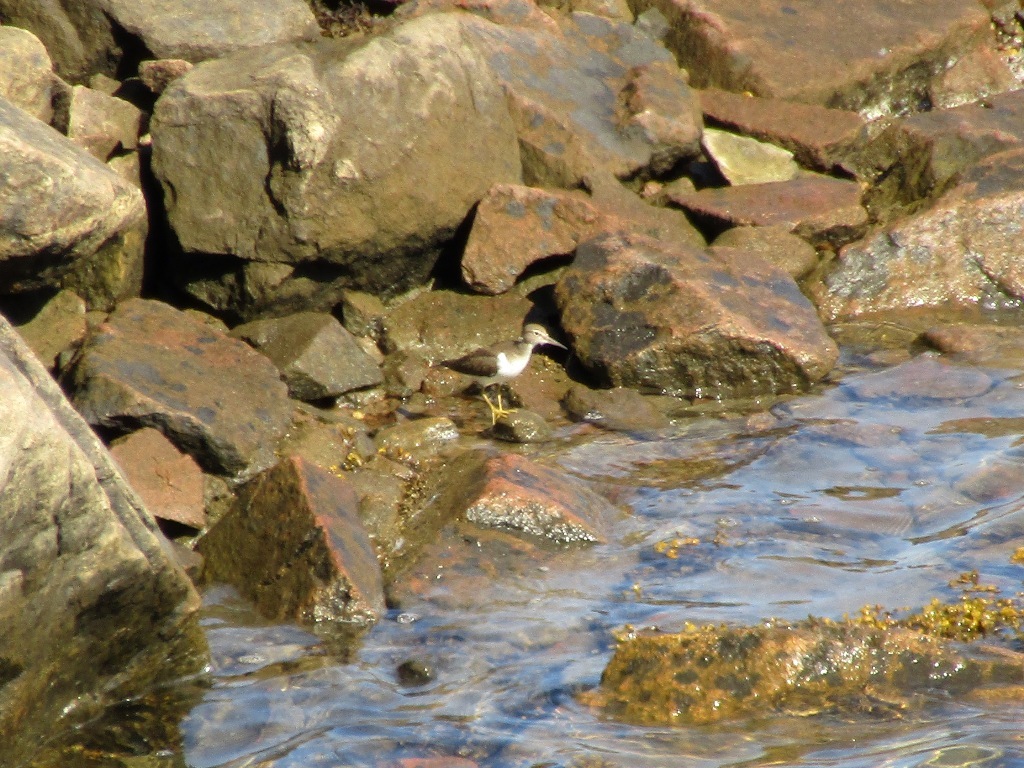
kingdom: Animalia
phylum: Chordata
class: Aves
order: Charadriiformes
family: Scolopacidae
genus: Actitis
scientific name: Actitis hypoleucos
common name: Common sandpiper
